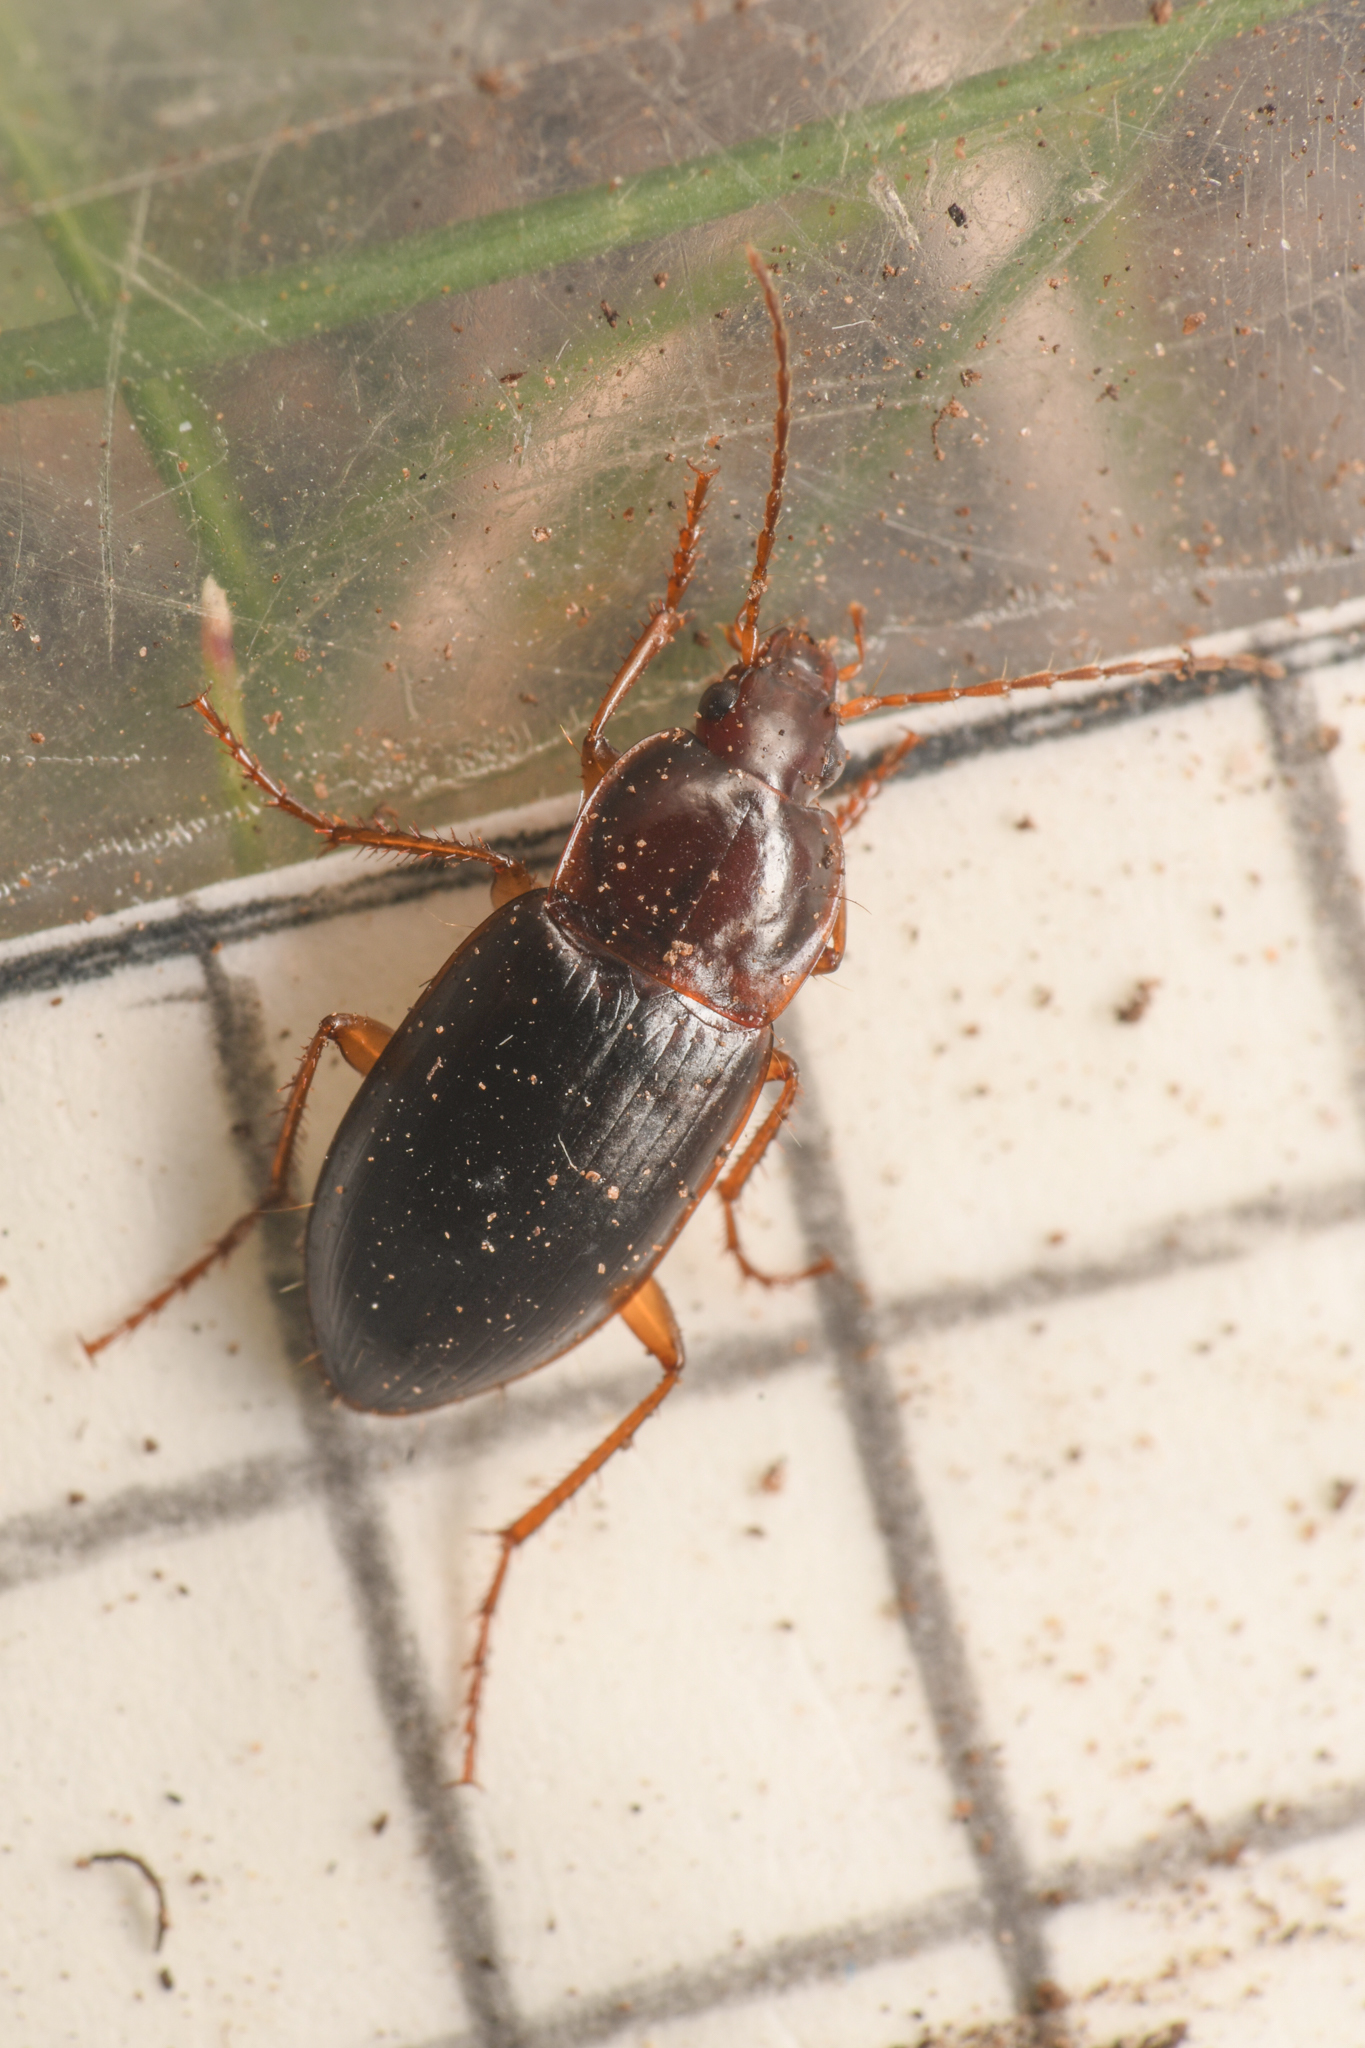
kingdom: Animalia
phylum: Arthropoda
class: Insecta
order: Coleoptera
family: Carabidae
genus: Calathus
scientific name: Calathus ruficollis
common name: Red-collared harp ground beetle
